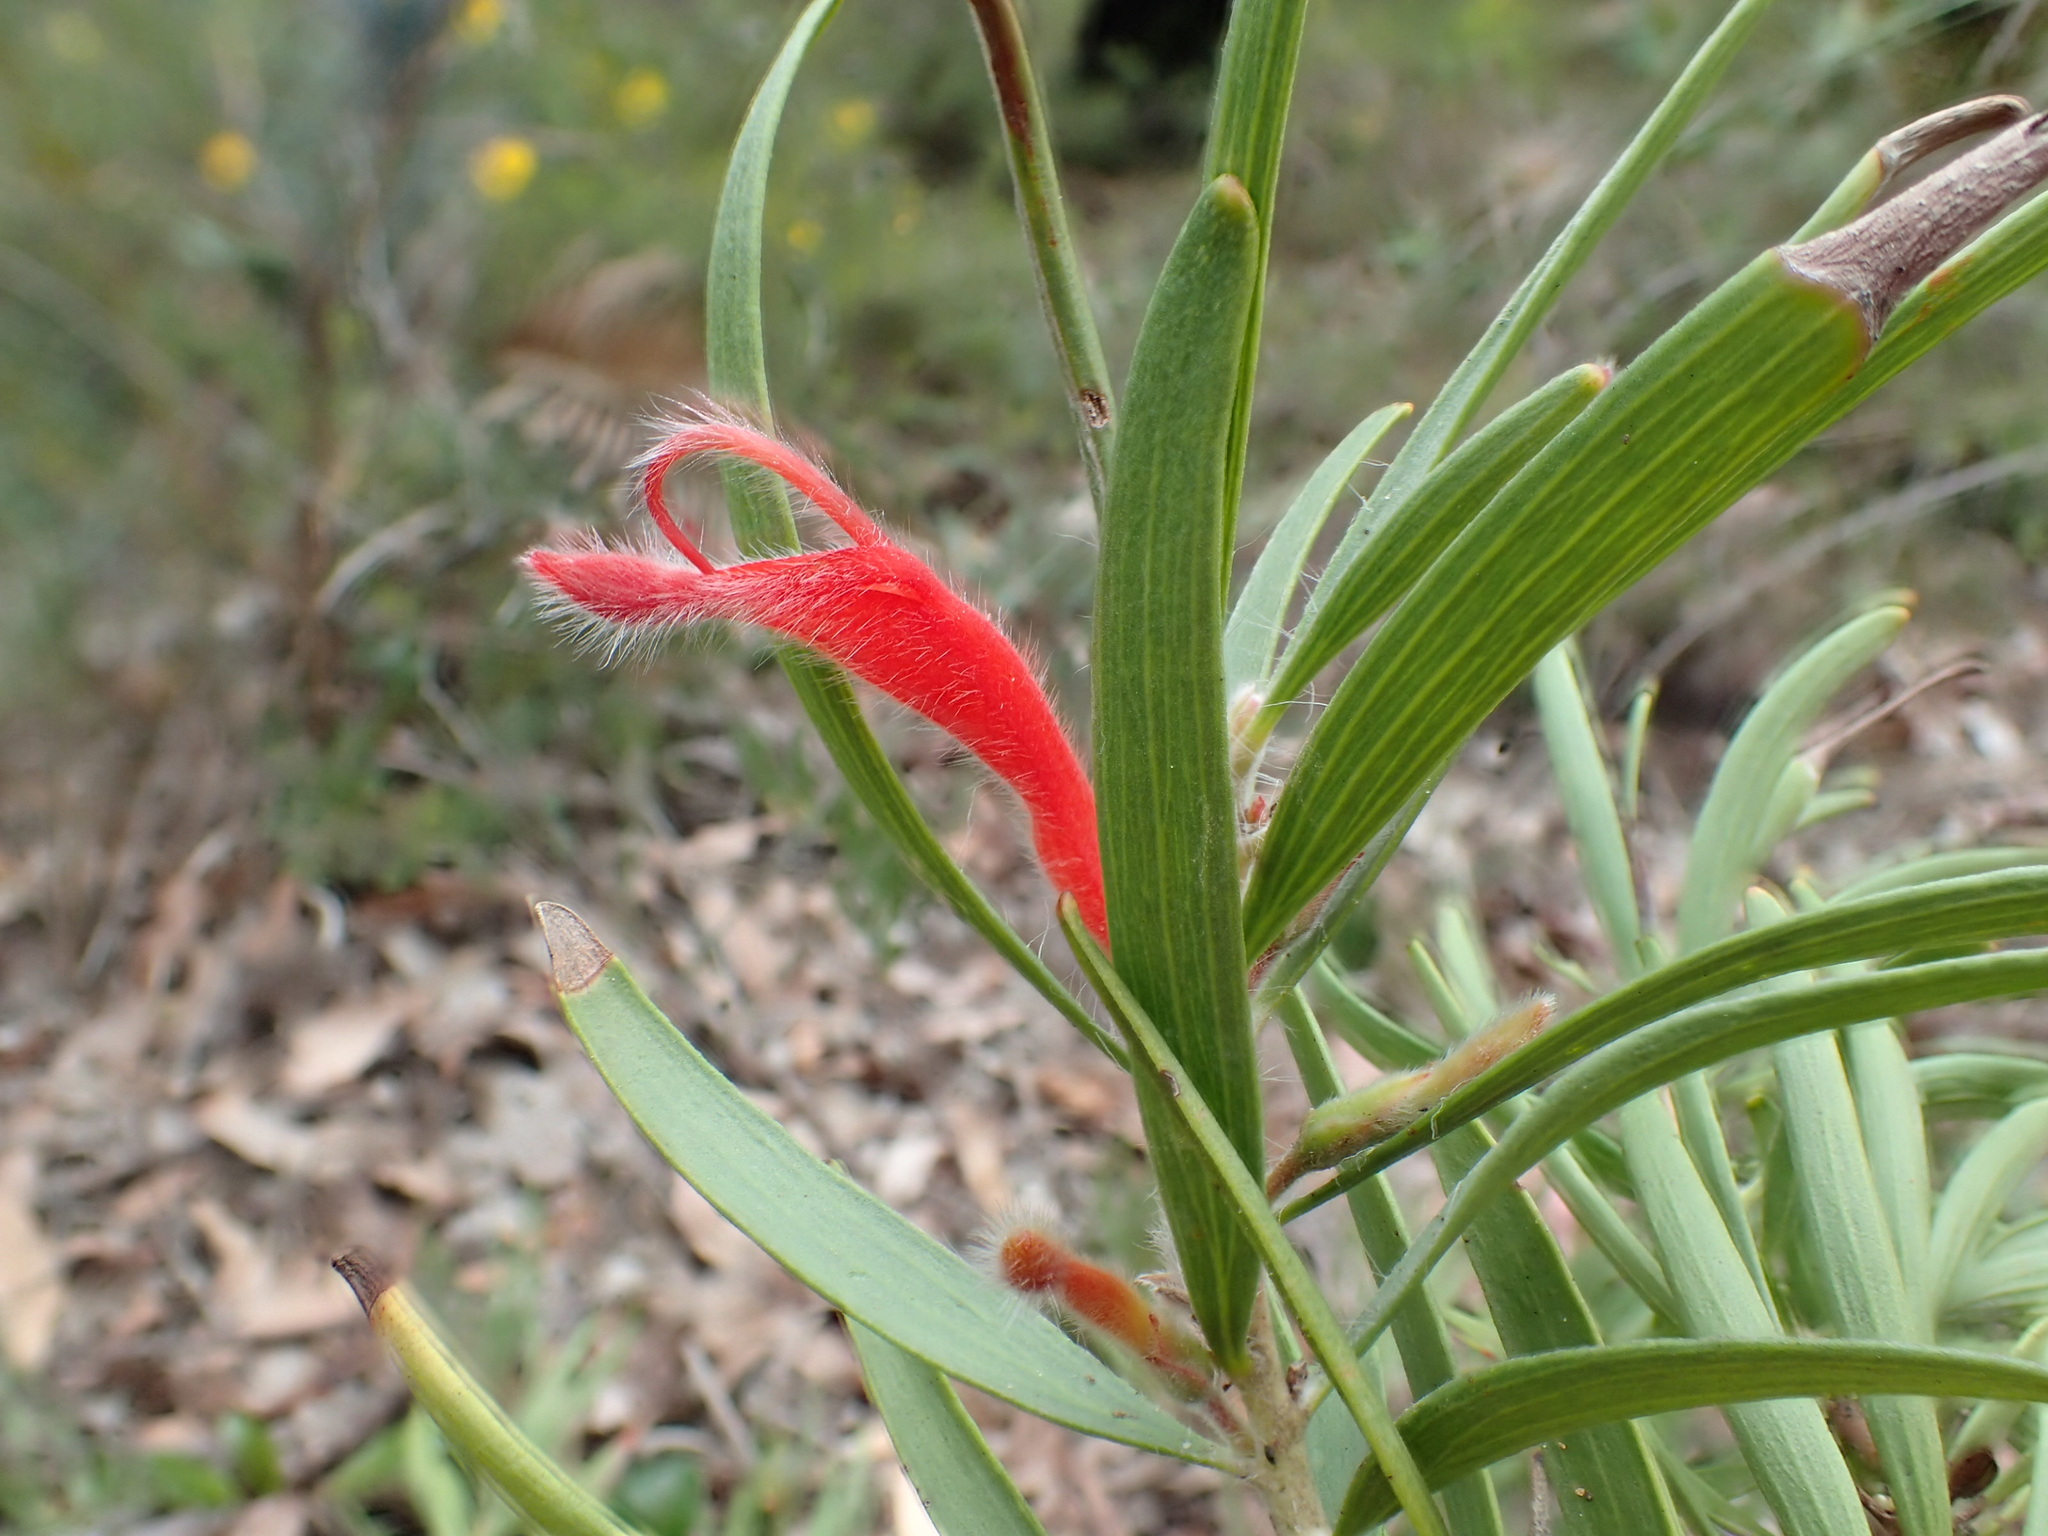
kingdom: Plantae
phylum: Tracheophyta
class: Magnoliopsida
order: Proteales
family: Proteaceae
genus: Adenanthos
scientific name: Adenanthos barbiger
